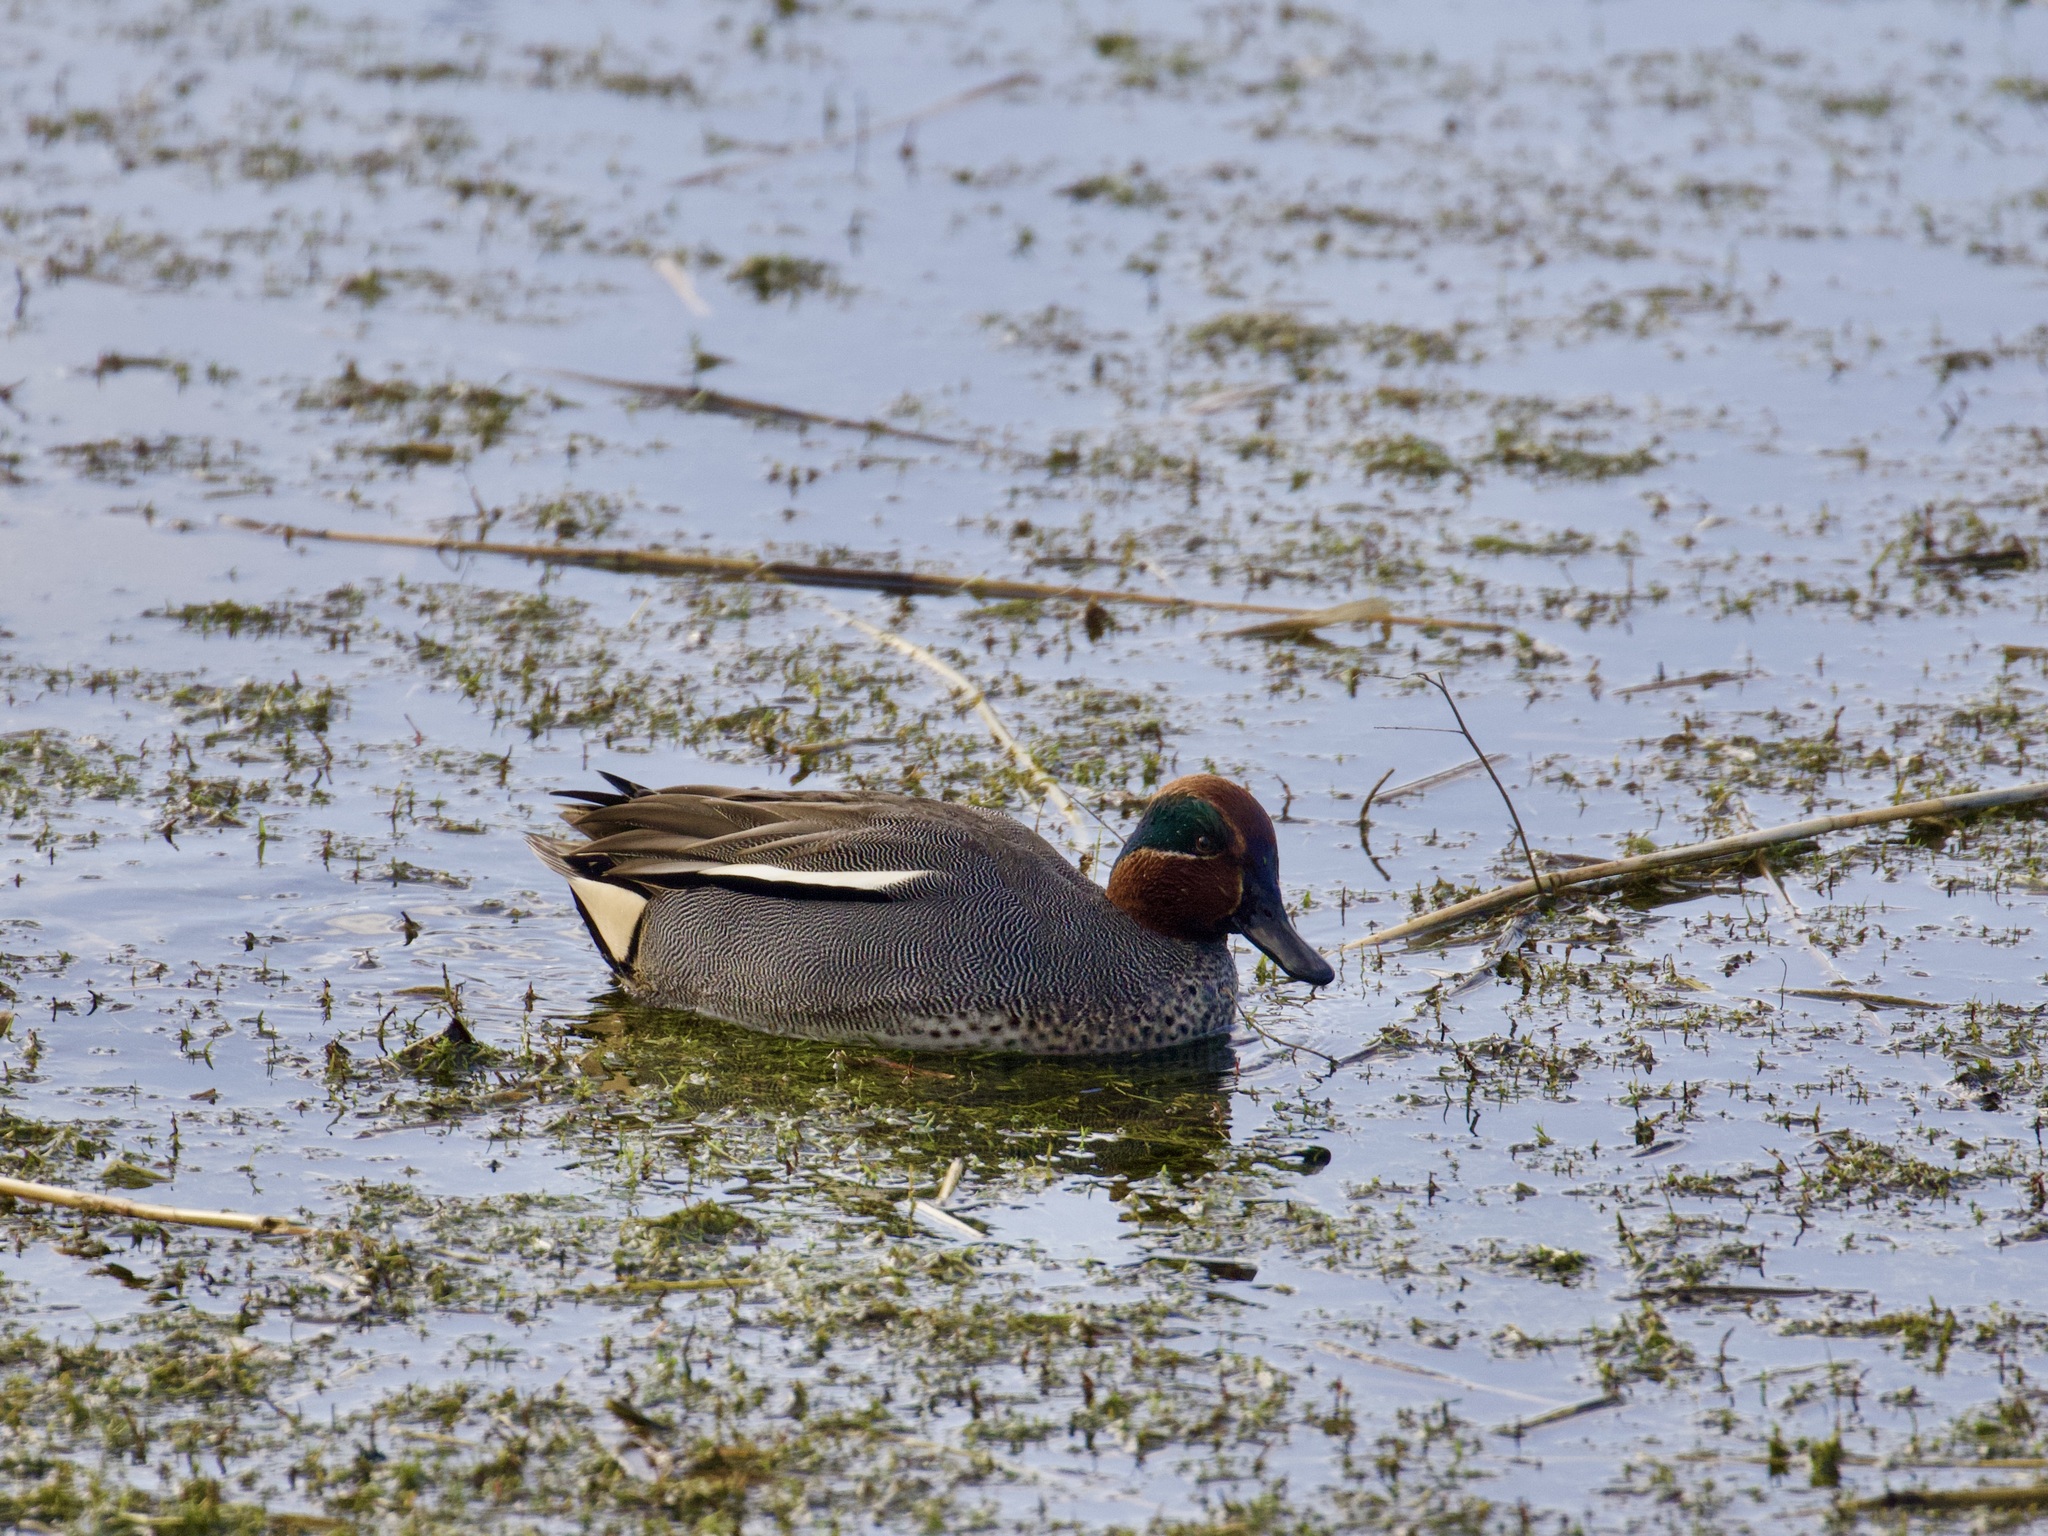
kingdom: Animalia
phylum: Chordata
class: Aves
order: Anseriformes
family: Anatidae
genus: Anas
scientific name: Anas crecca
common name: Eurasian teal
